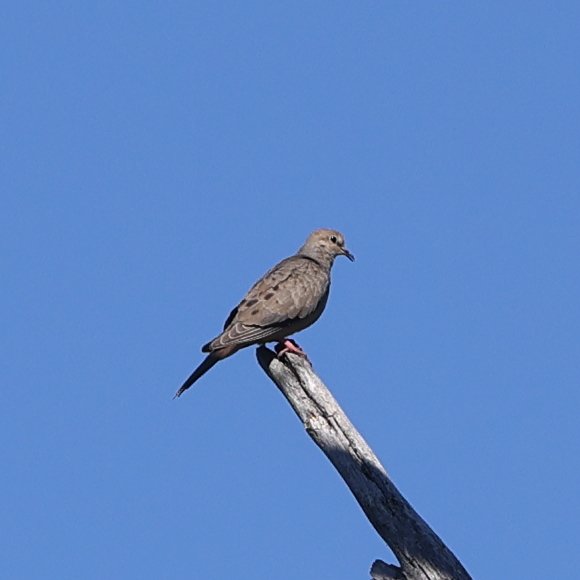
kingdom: Animalia
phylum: Chordata
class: Aves
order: Columbiformes
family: Columbidae
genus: Zenaida
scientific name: Zenaida macroura
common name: Mourning dove
